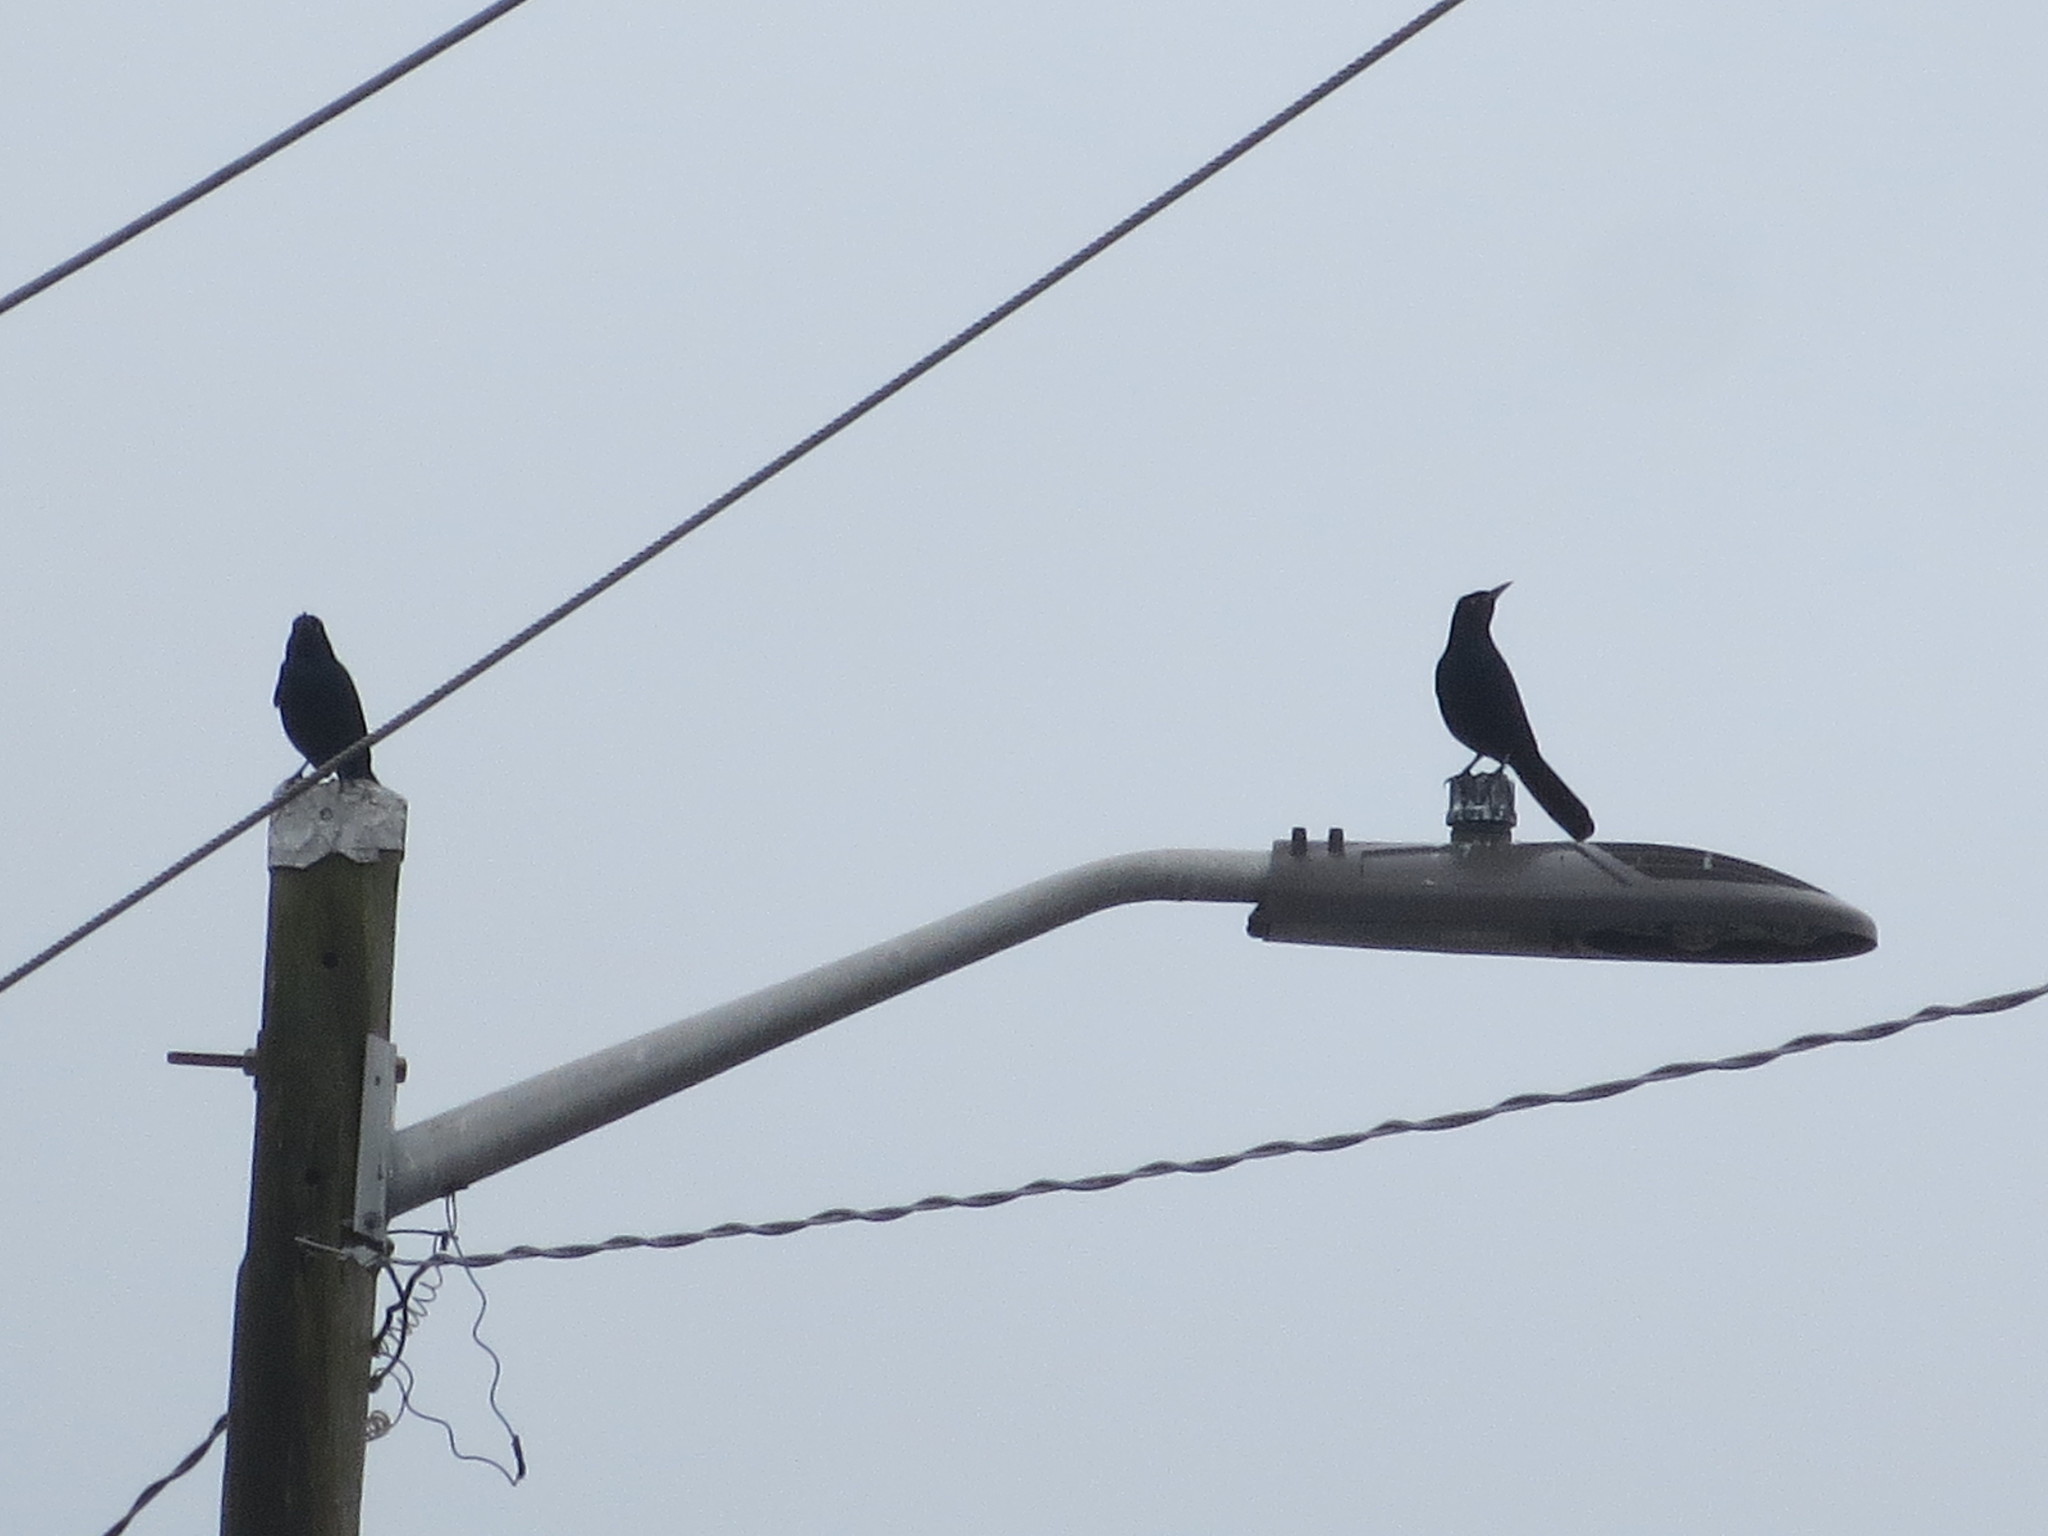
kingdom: Animalia
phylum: Chordata
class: Aves
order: Passeriformes
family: Icteridae
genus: Quiscalus
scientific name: Quiscalus major
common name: Boat-tailed grackle
